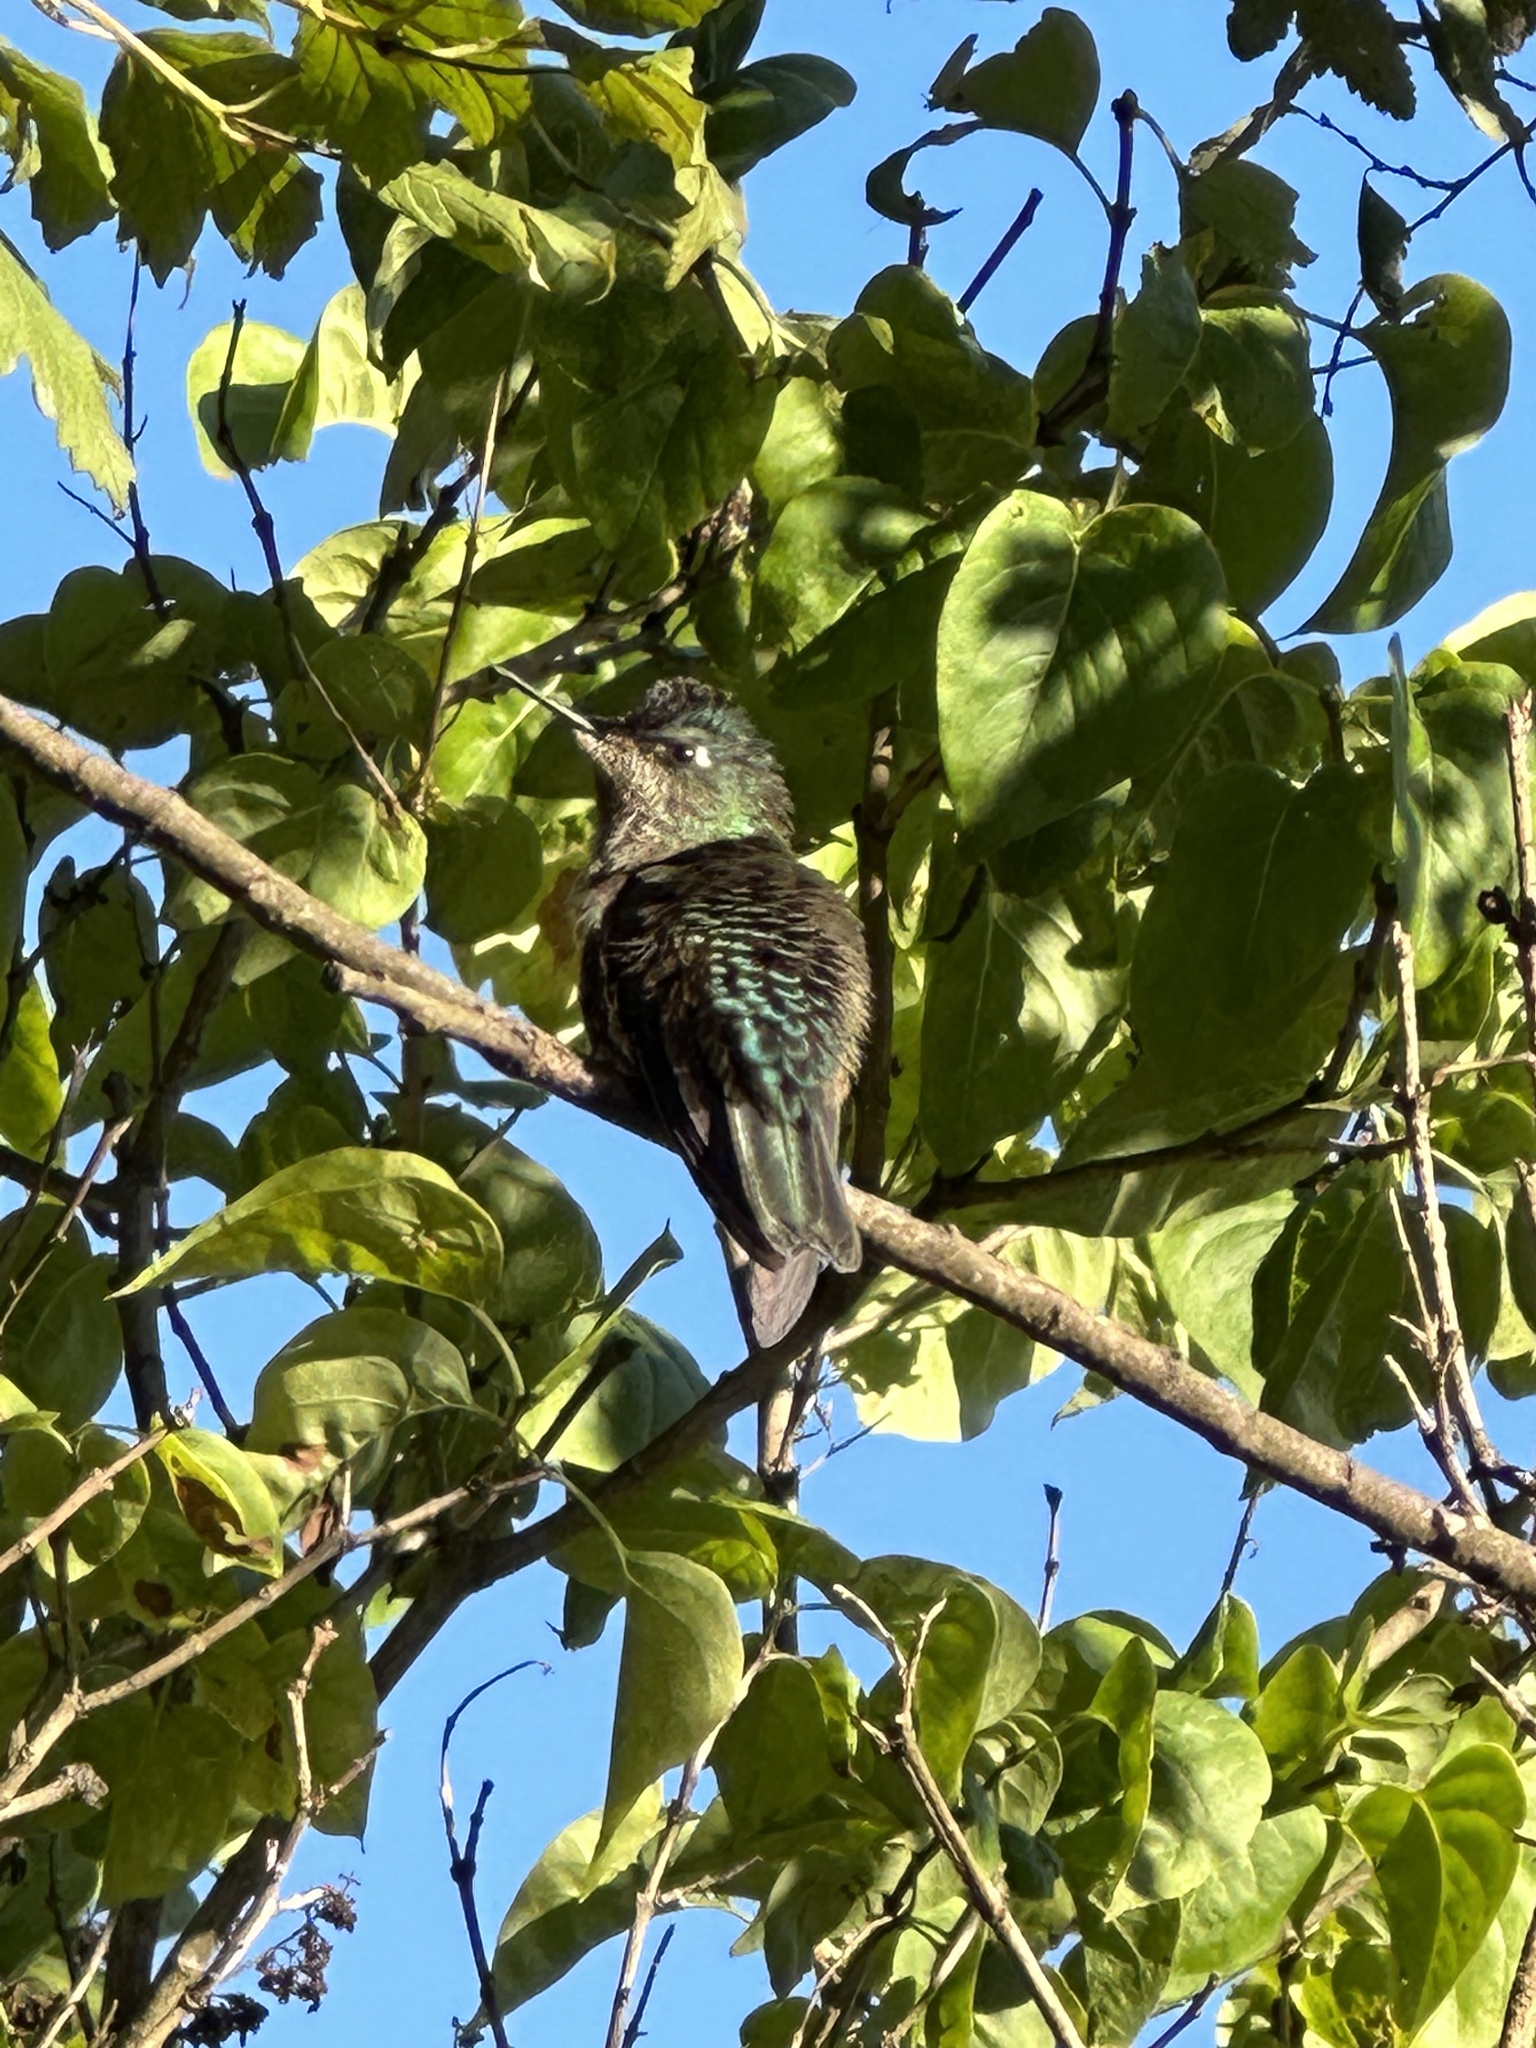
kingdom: Animalia
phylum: Chordata
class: Aves
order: Apodiformes
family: Trochilidae
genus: Sephanoides
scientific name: Sephanoides sephaniodes
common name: Green-backed firecrown
